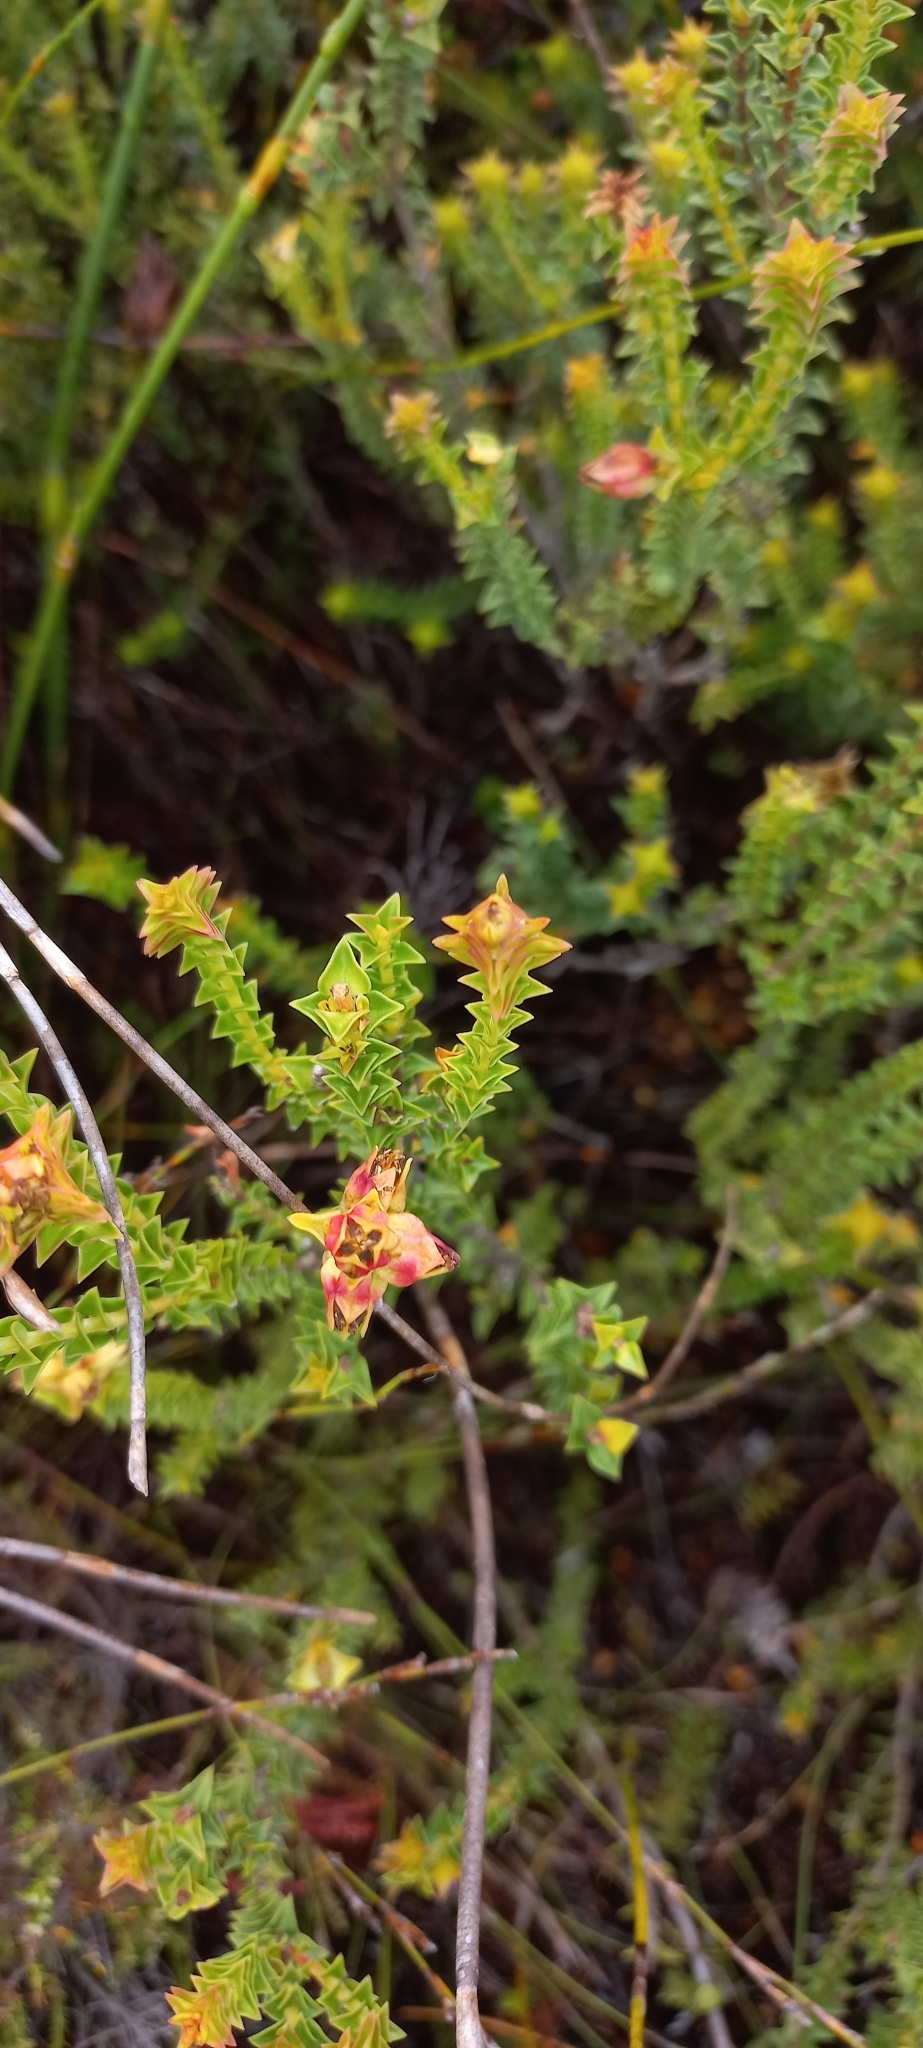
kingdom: Plantae
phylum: Tracheophyta
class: Magnoliopsida
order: Myrtales
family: Penaeaceae
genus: Penaea
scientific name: Penaea mucronata
